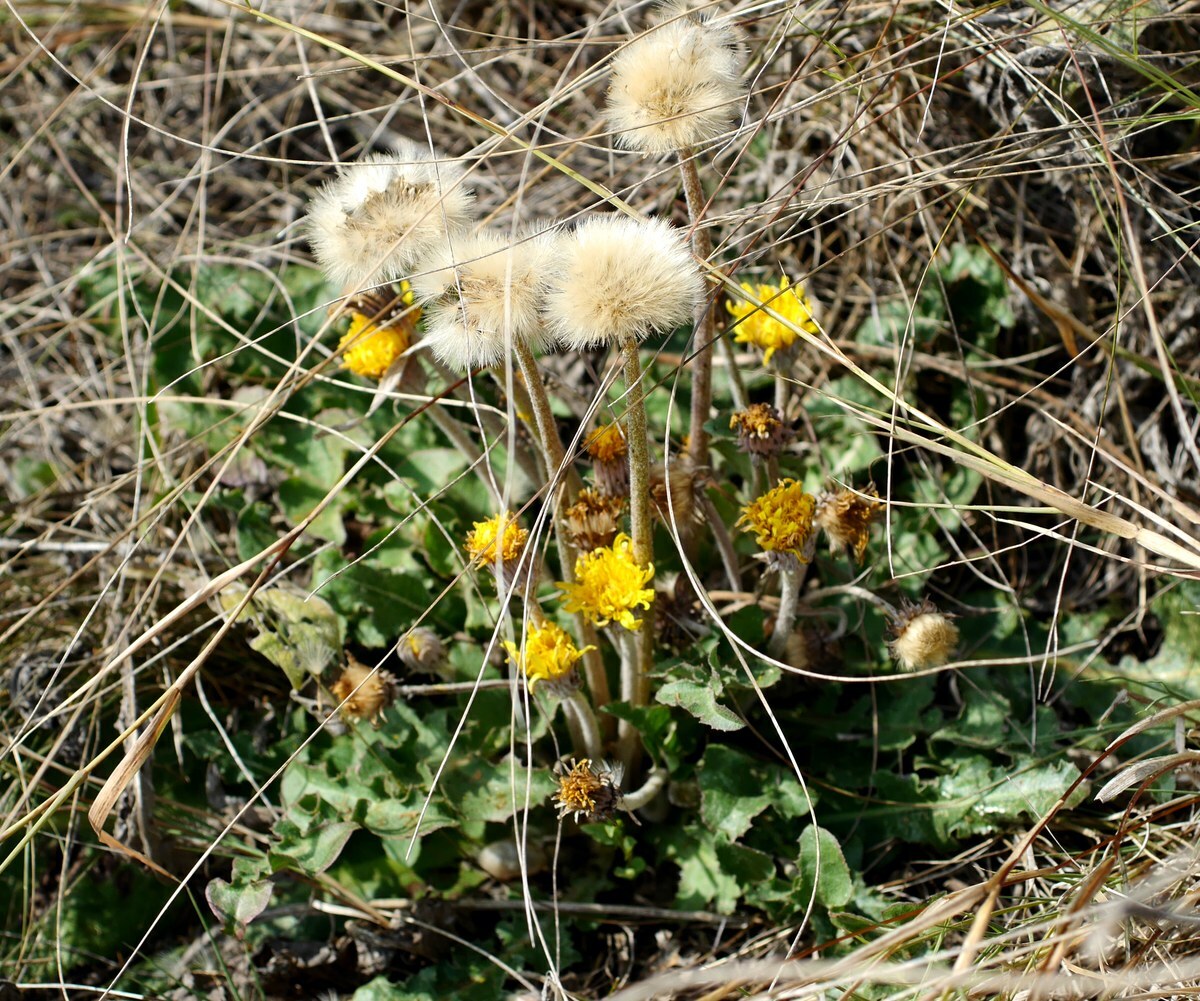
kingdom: Plantae
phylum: Tracheophyta
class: Magnoliopsida
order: Asterales
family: Asteraceae
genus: Taraxacum
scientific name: Taraxacum serotinum
